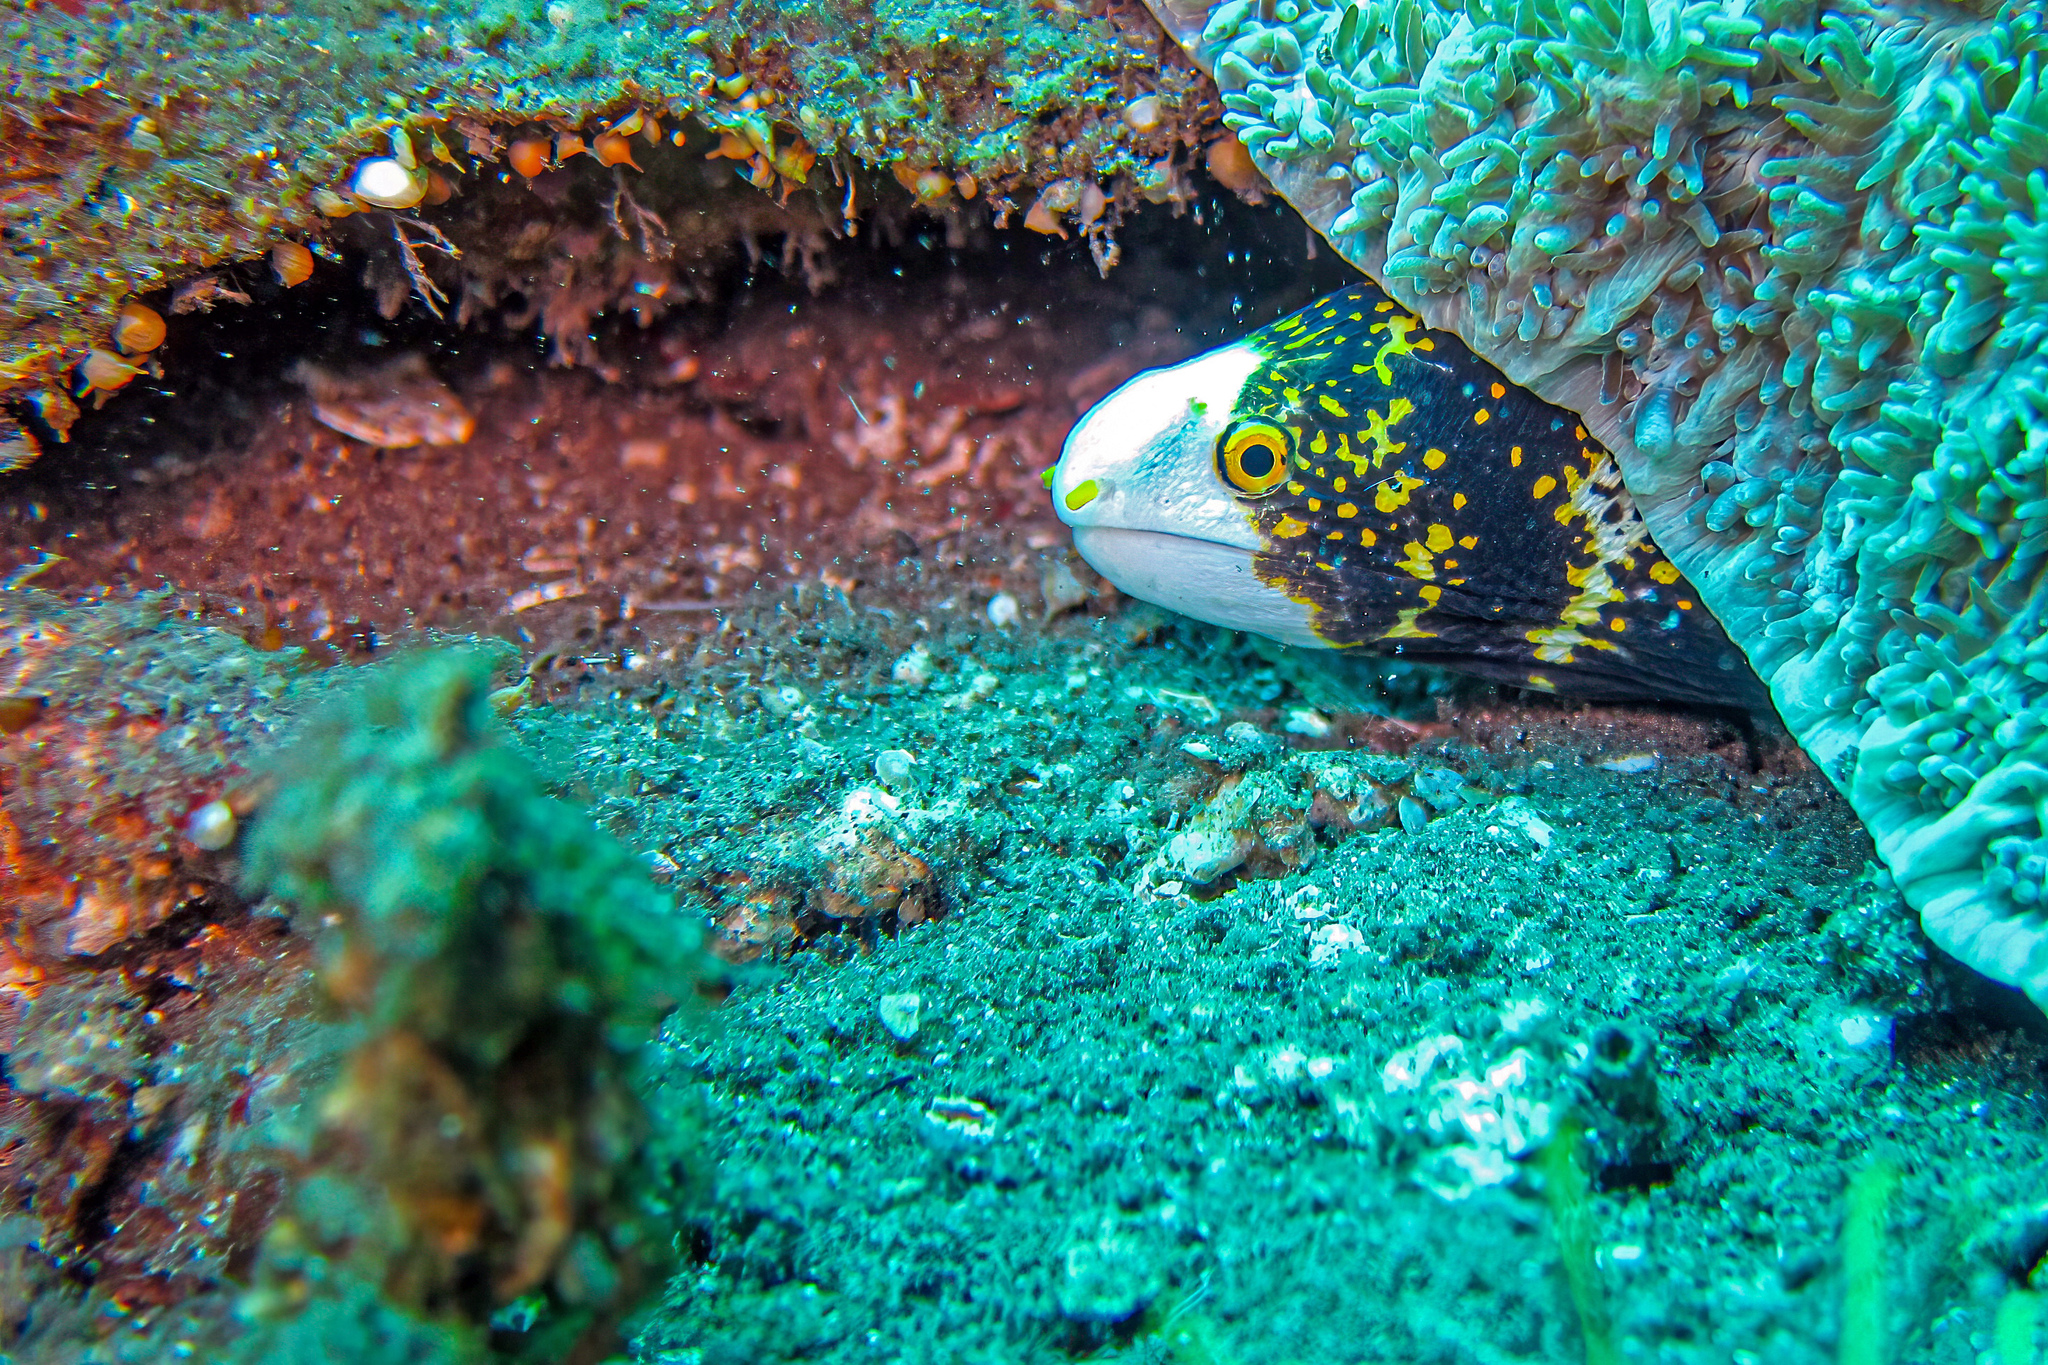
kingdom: Animalia
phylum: Chordata
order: Anguilliformes
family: Muraenidae
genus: Echidna
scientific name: Echidna nebulosa
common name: Snowflake moray
